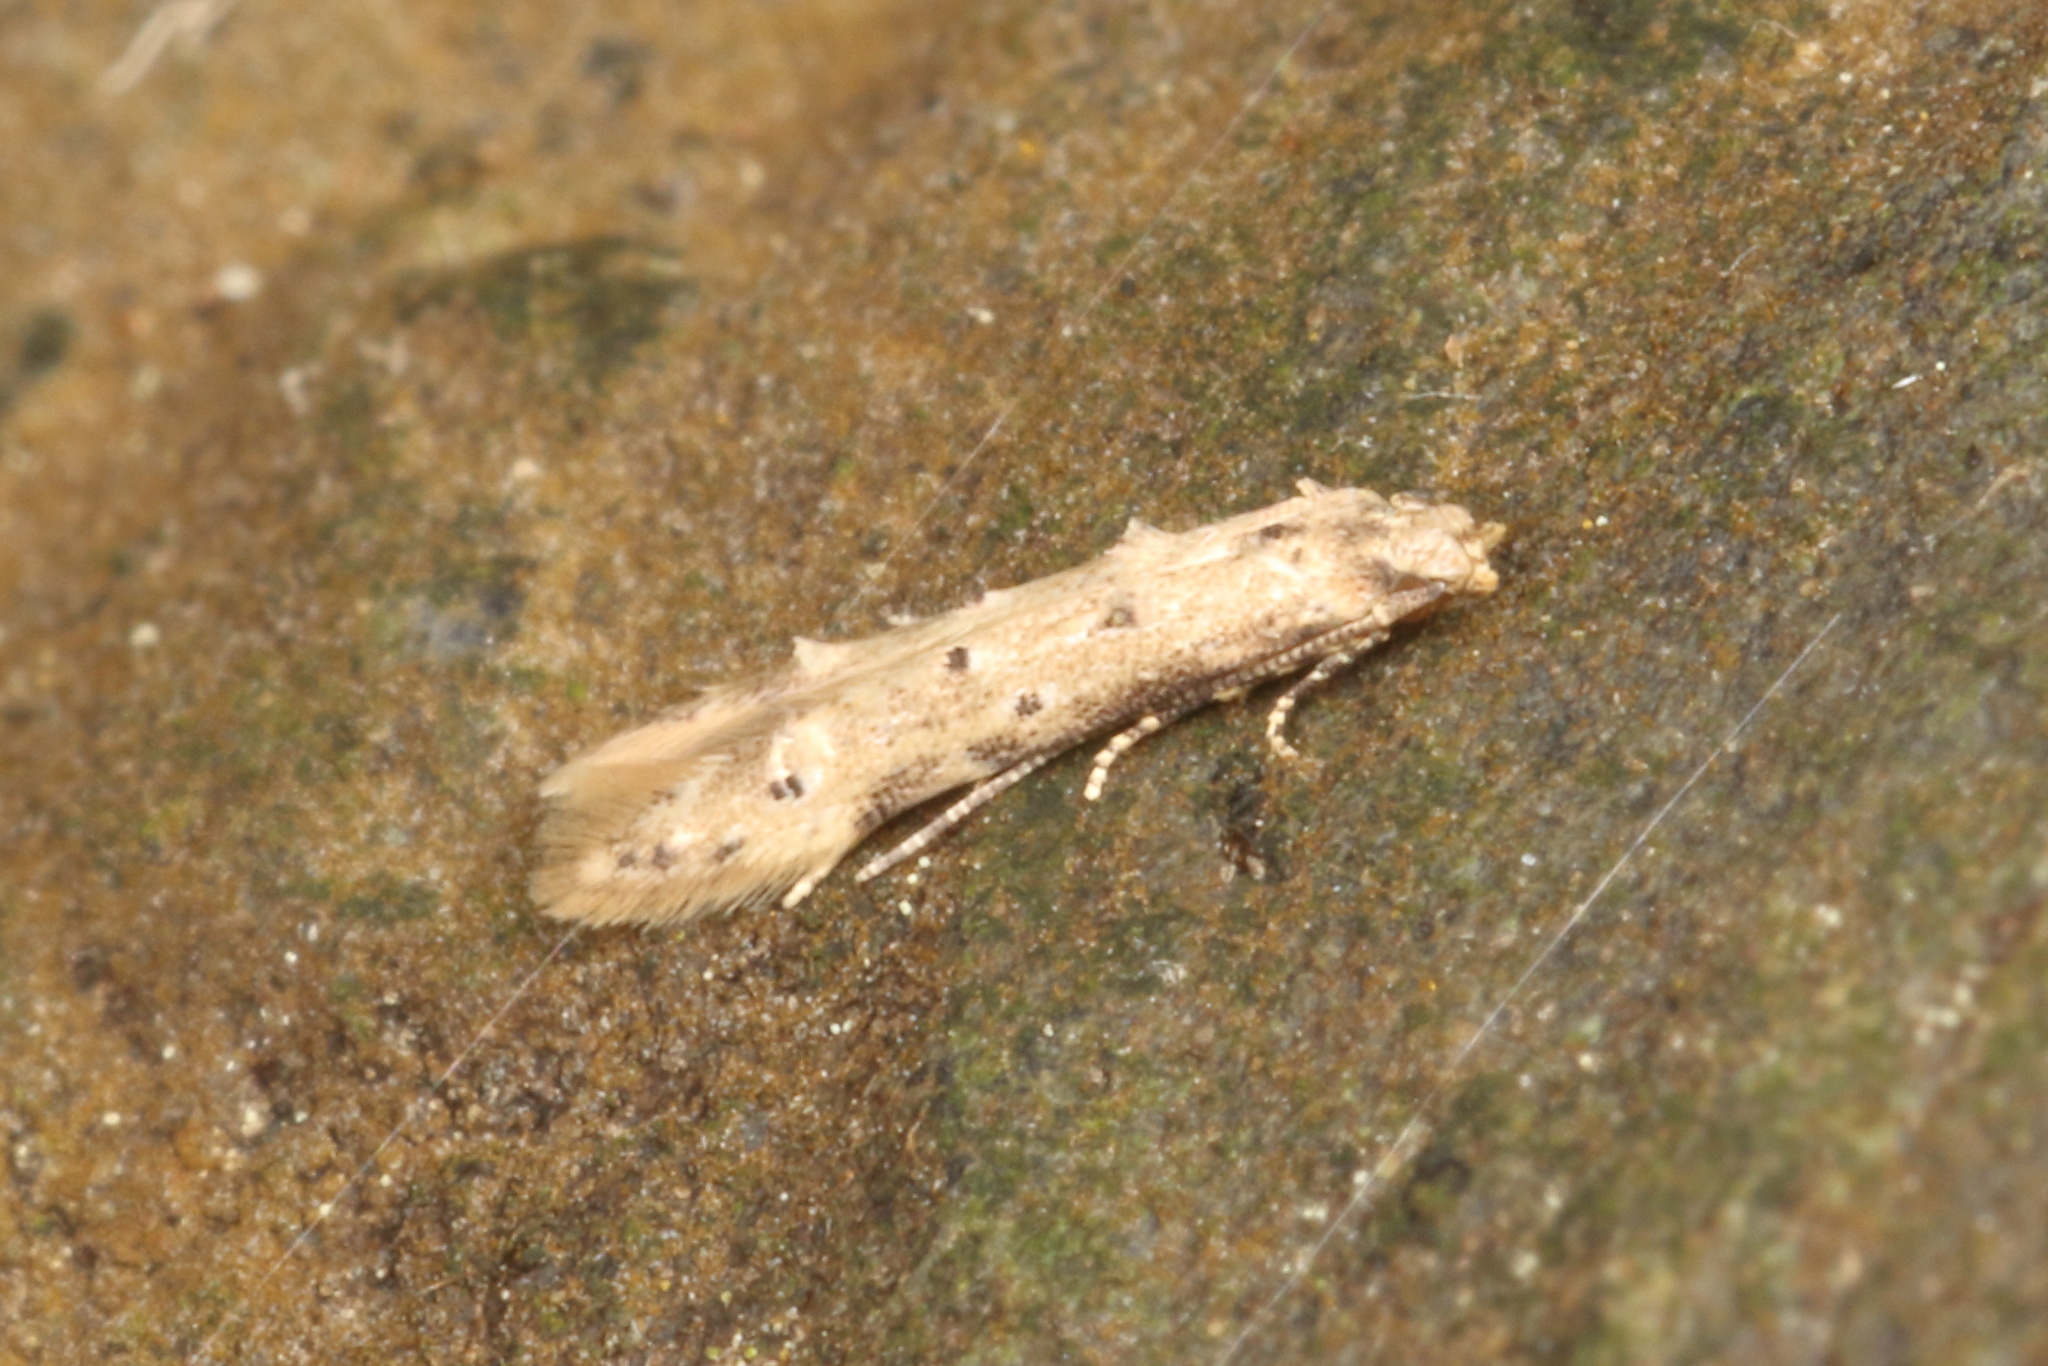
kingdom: Animalia
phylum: Arthropoda
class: Insecta
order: Lepidoptera
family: Elachistidae
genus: Microcolona
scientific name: Microcolona limodes
